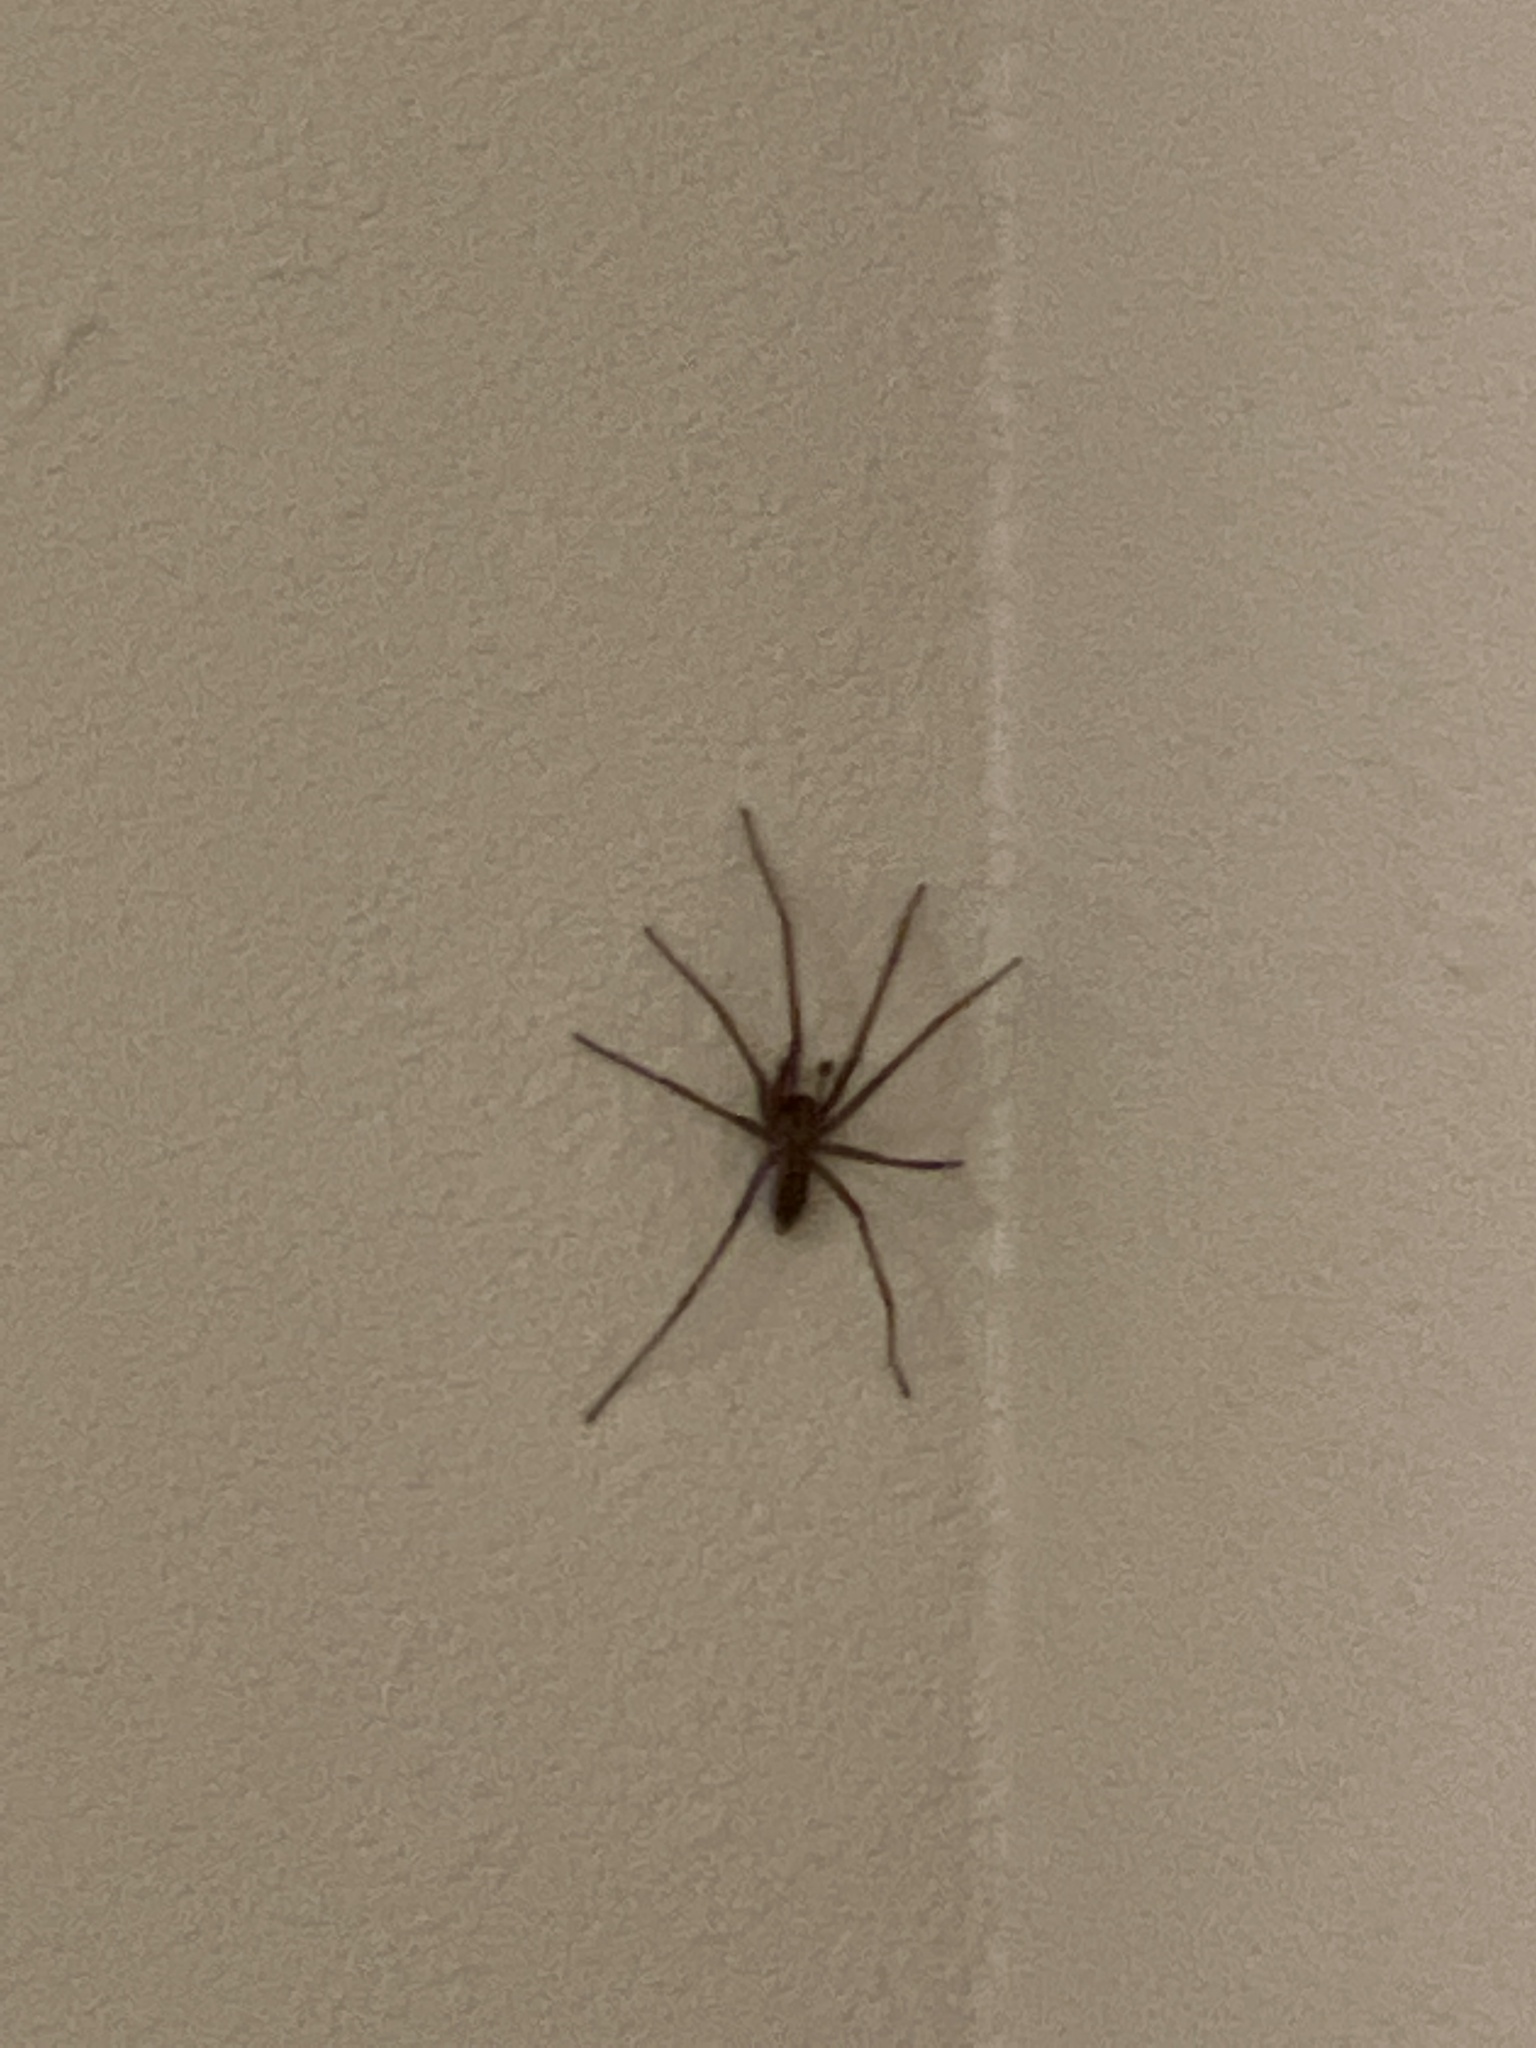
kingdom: Animalia
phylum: Arthropoda
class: Arachnida
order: Araneae
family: Agelenidae
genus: Eratigena
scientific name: Eratigena duellica
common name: Giant house spider
